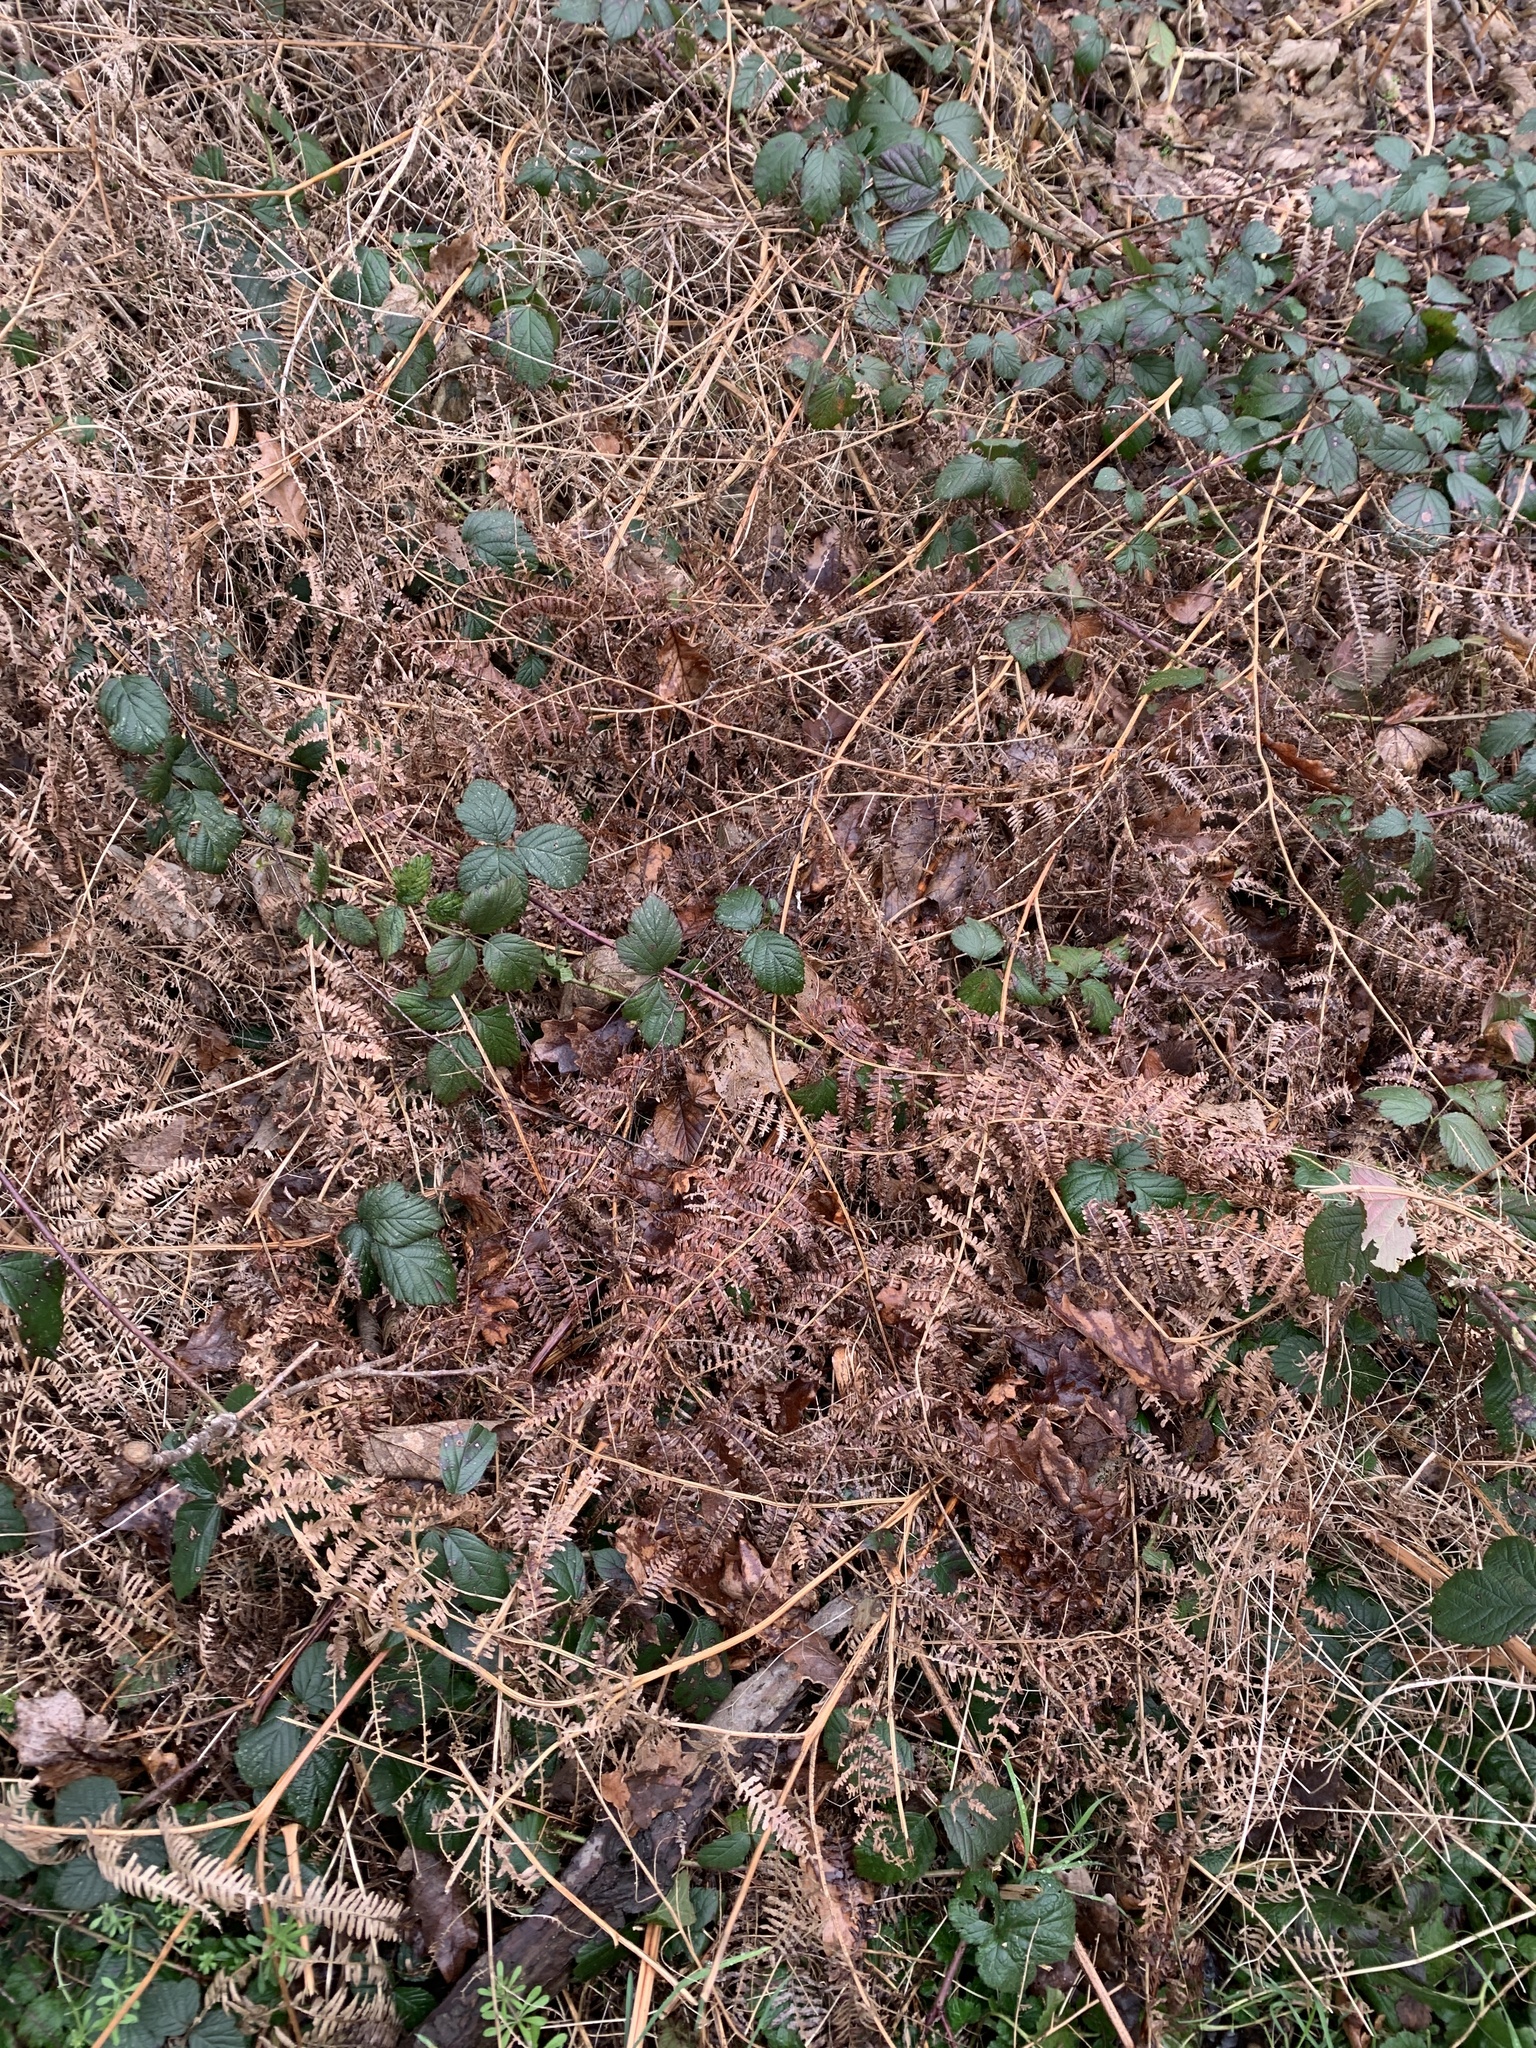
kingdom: Plantae
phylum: Tracheophyta
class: Polypodiopsida
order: Polypodiales
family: Dennstaedtiaceae
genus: Pteridium
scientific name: Pteridium aquilinum
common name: Bracken
